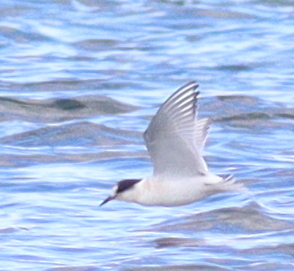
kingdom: Animalia
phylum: Chordata
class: Aves
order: Charadriiformes
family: Laridae
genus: Sterna
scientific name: Sterna paradisaea
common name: Arctic tern
